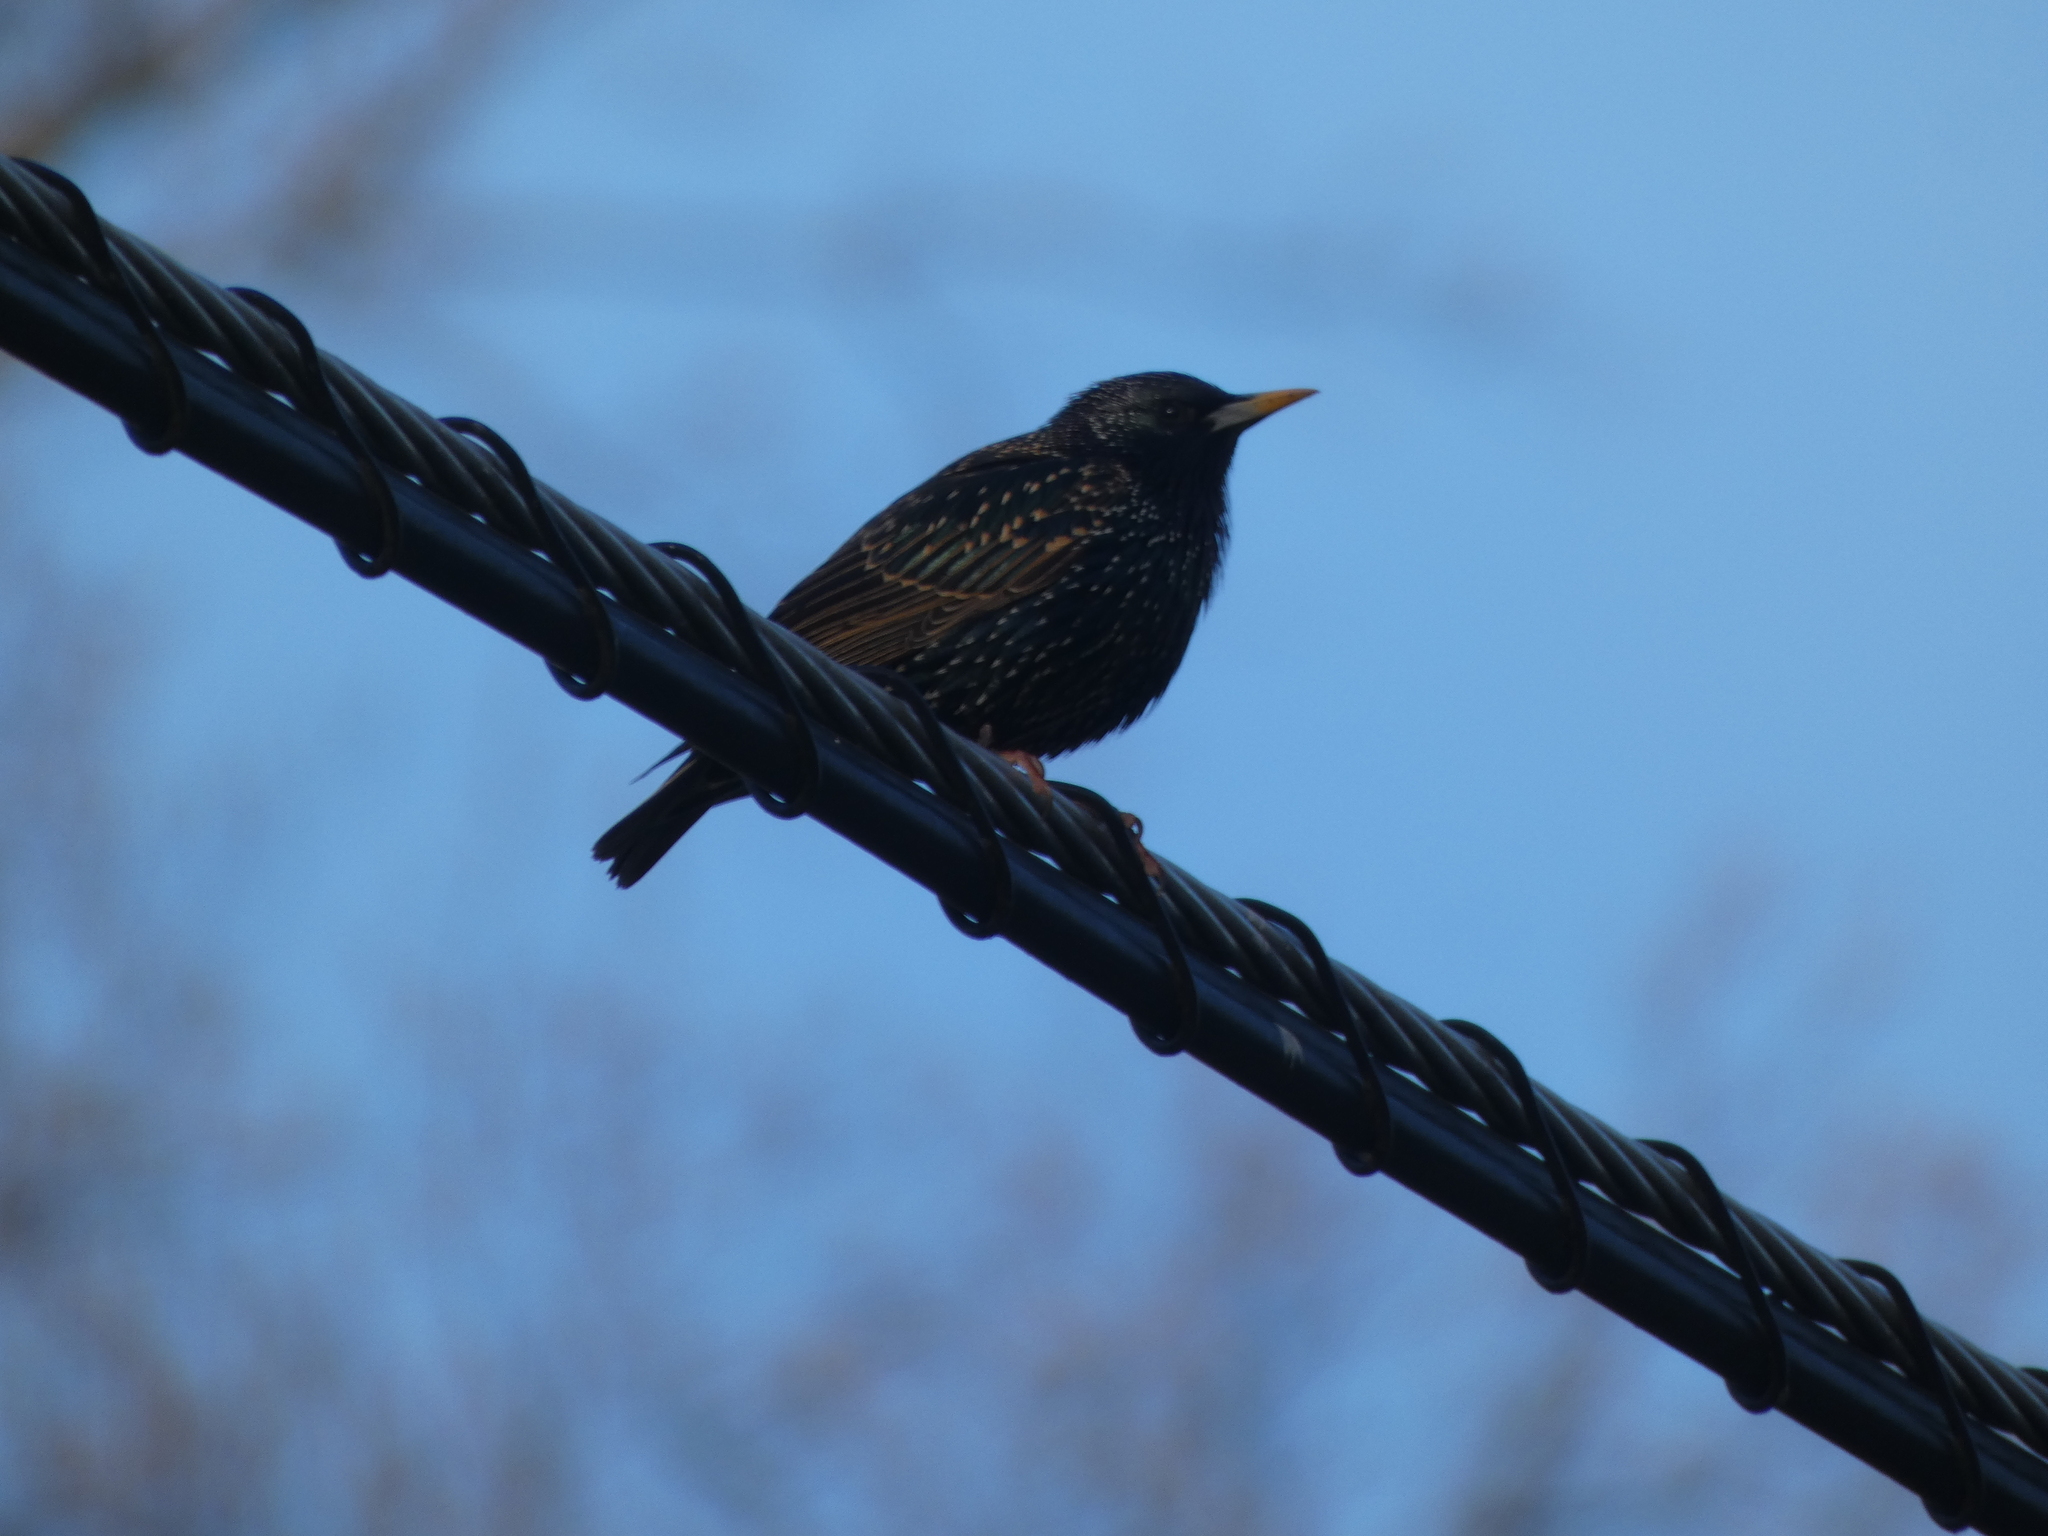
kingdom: Animalia
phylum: Chordata
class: Aves
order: Passeriformes
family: Sturnidae
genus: Sturnus
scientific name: Sturnus vulgaris
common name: Common starling
